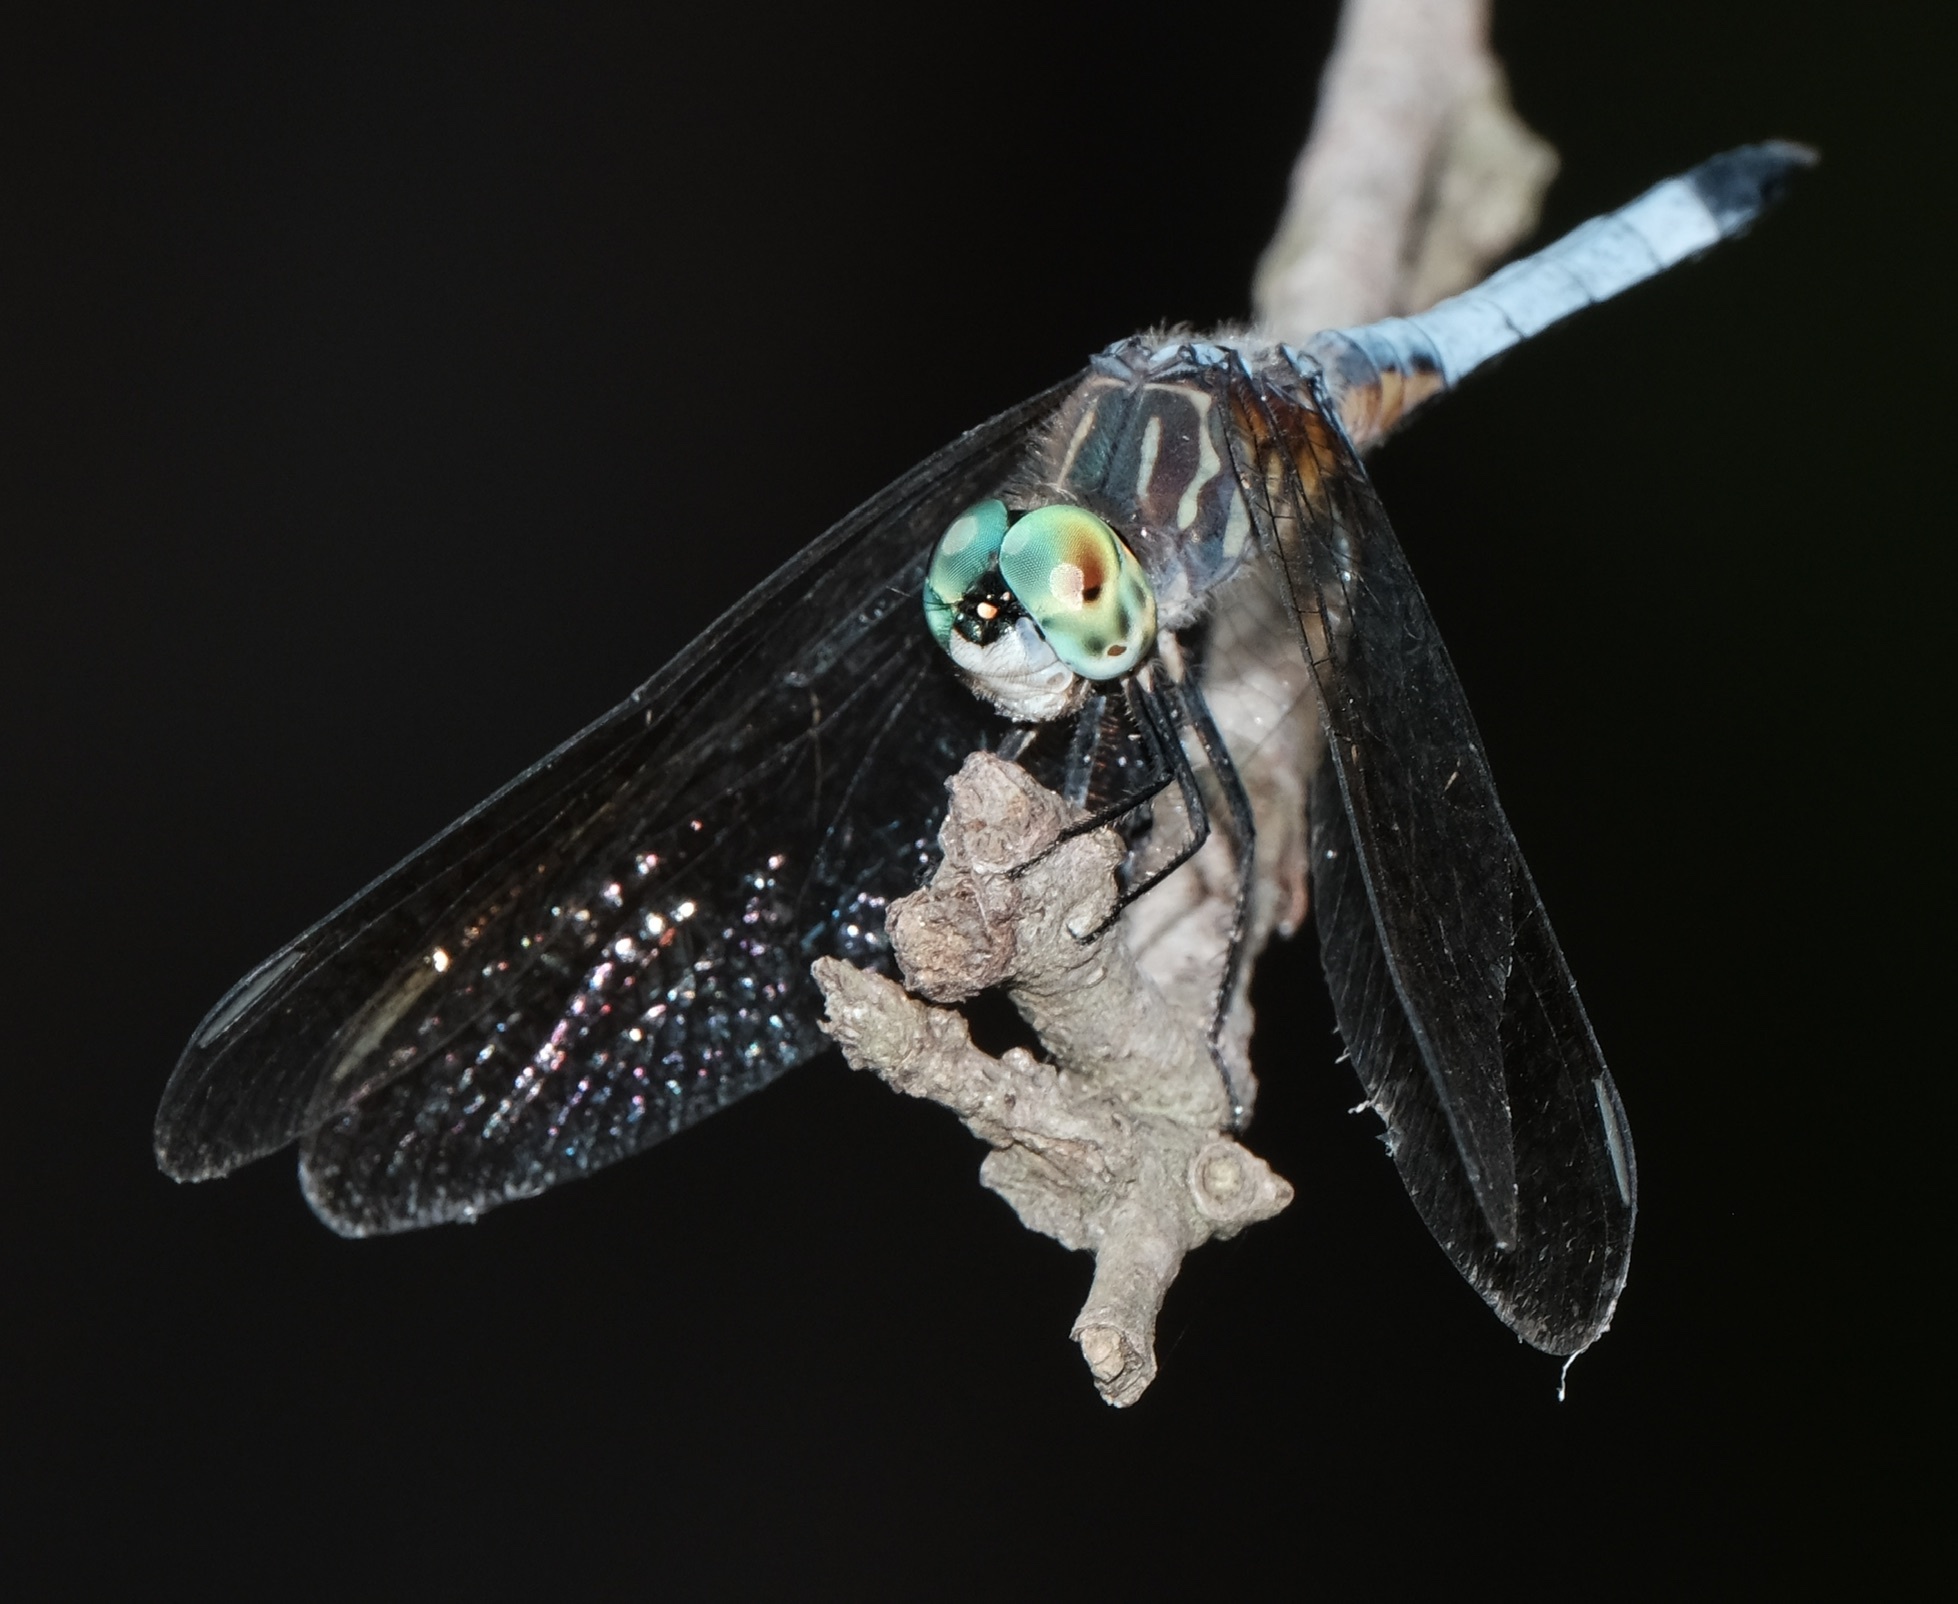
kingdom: Animalia
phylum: Arthropoda
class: Insecta
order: Odonata
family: Libellulidae
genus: Pachydiplax
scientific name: Pachydiplax longipennis
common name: Blue dasher
